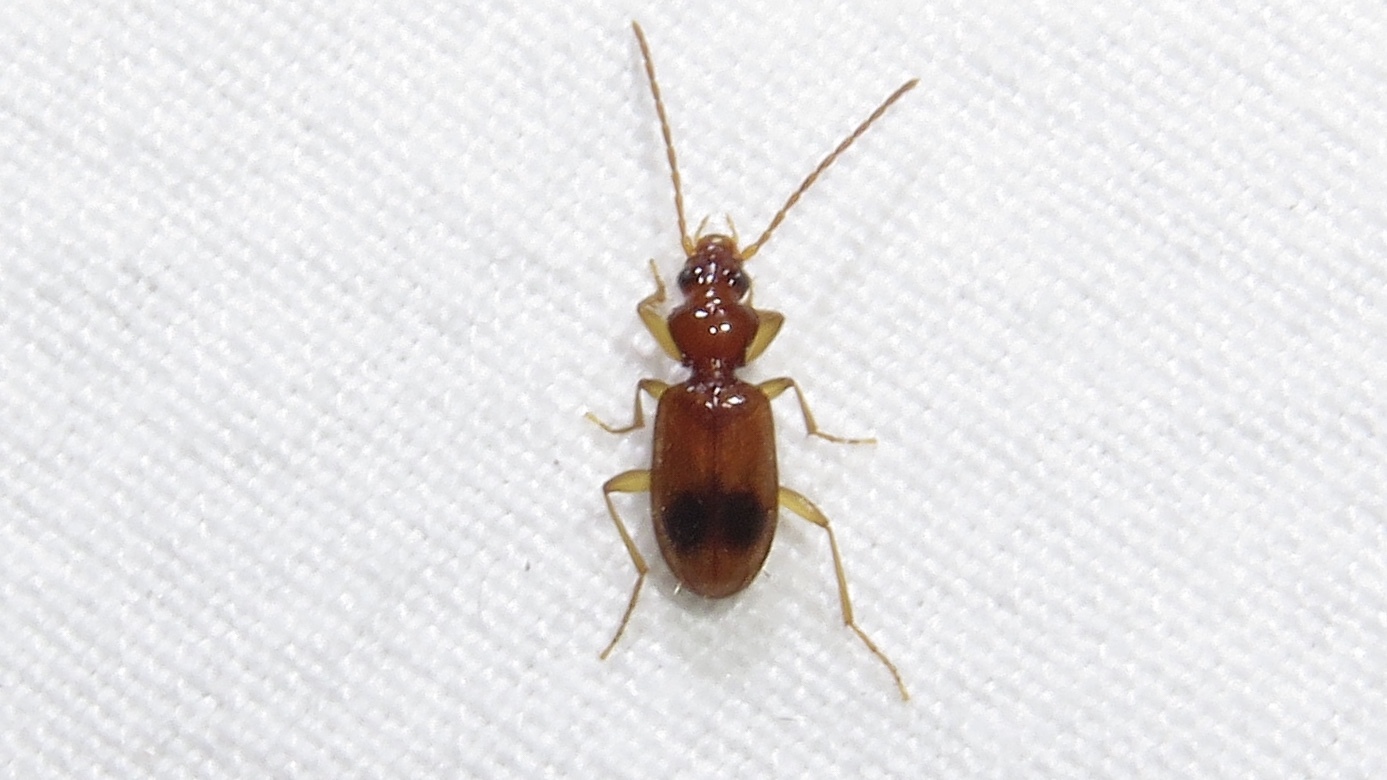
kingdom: Animalia
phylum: Arthropoda
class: Insecta
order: Coleoptera
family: Carabidae
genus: Blemus
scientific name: Blemus discus
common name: Discus riverbank ground beetle
